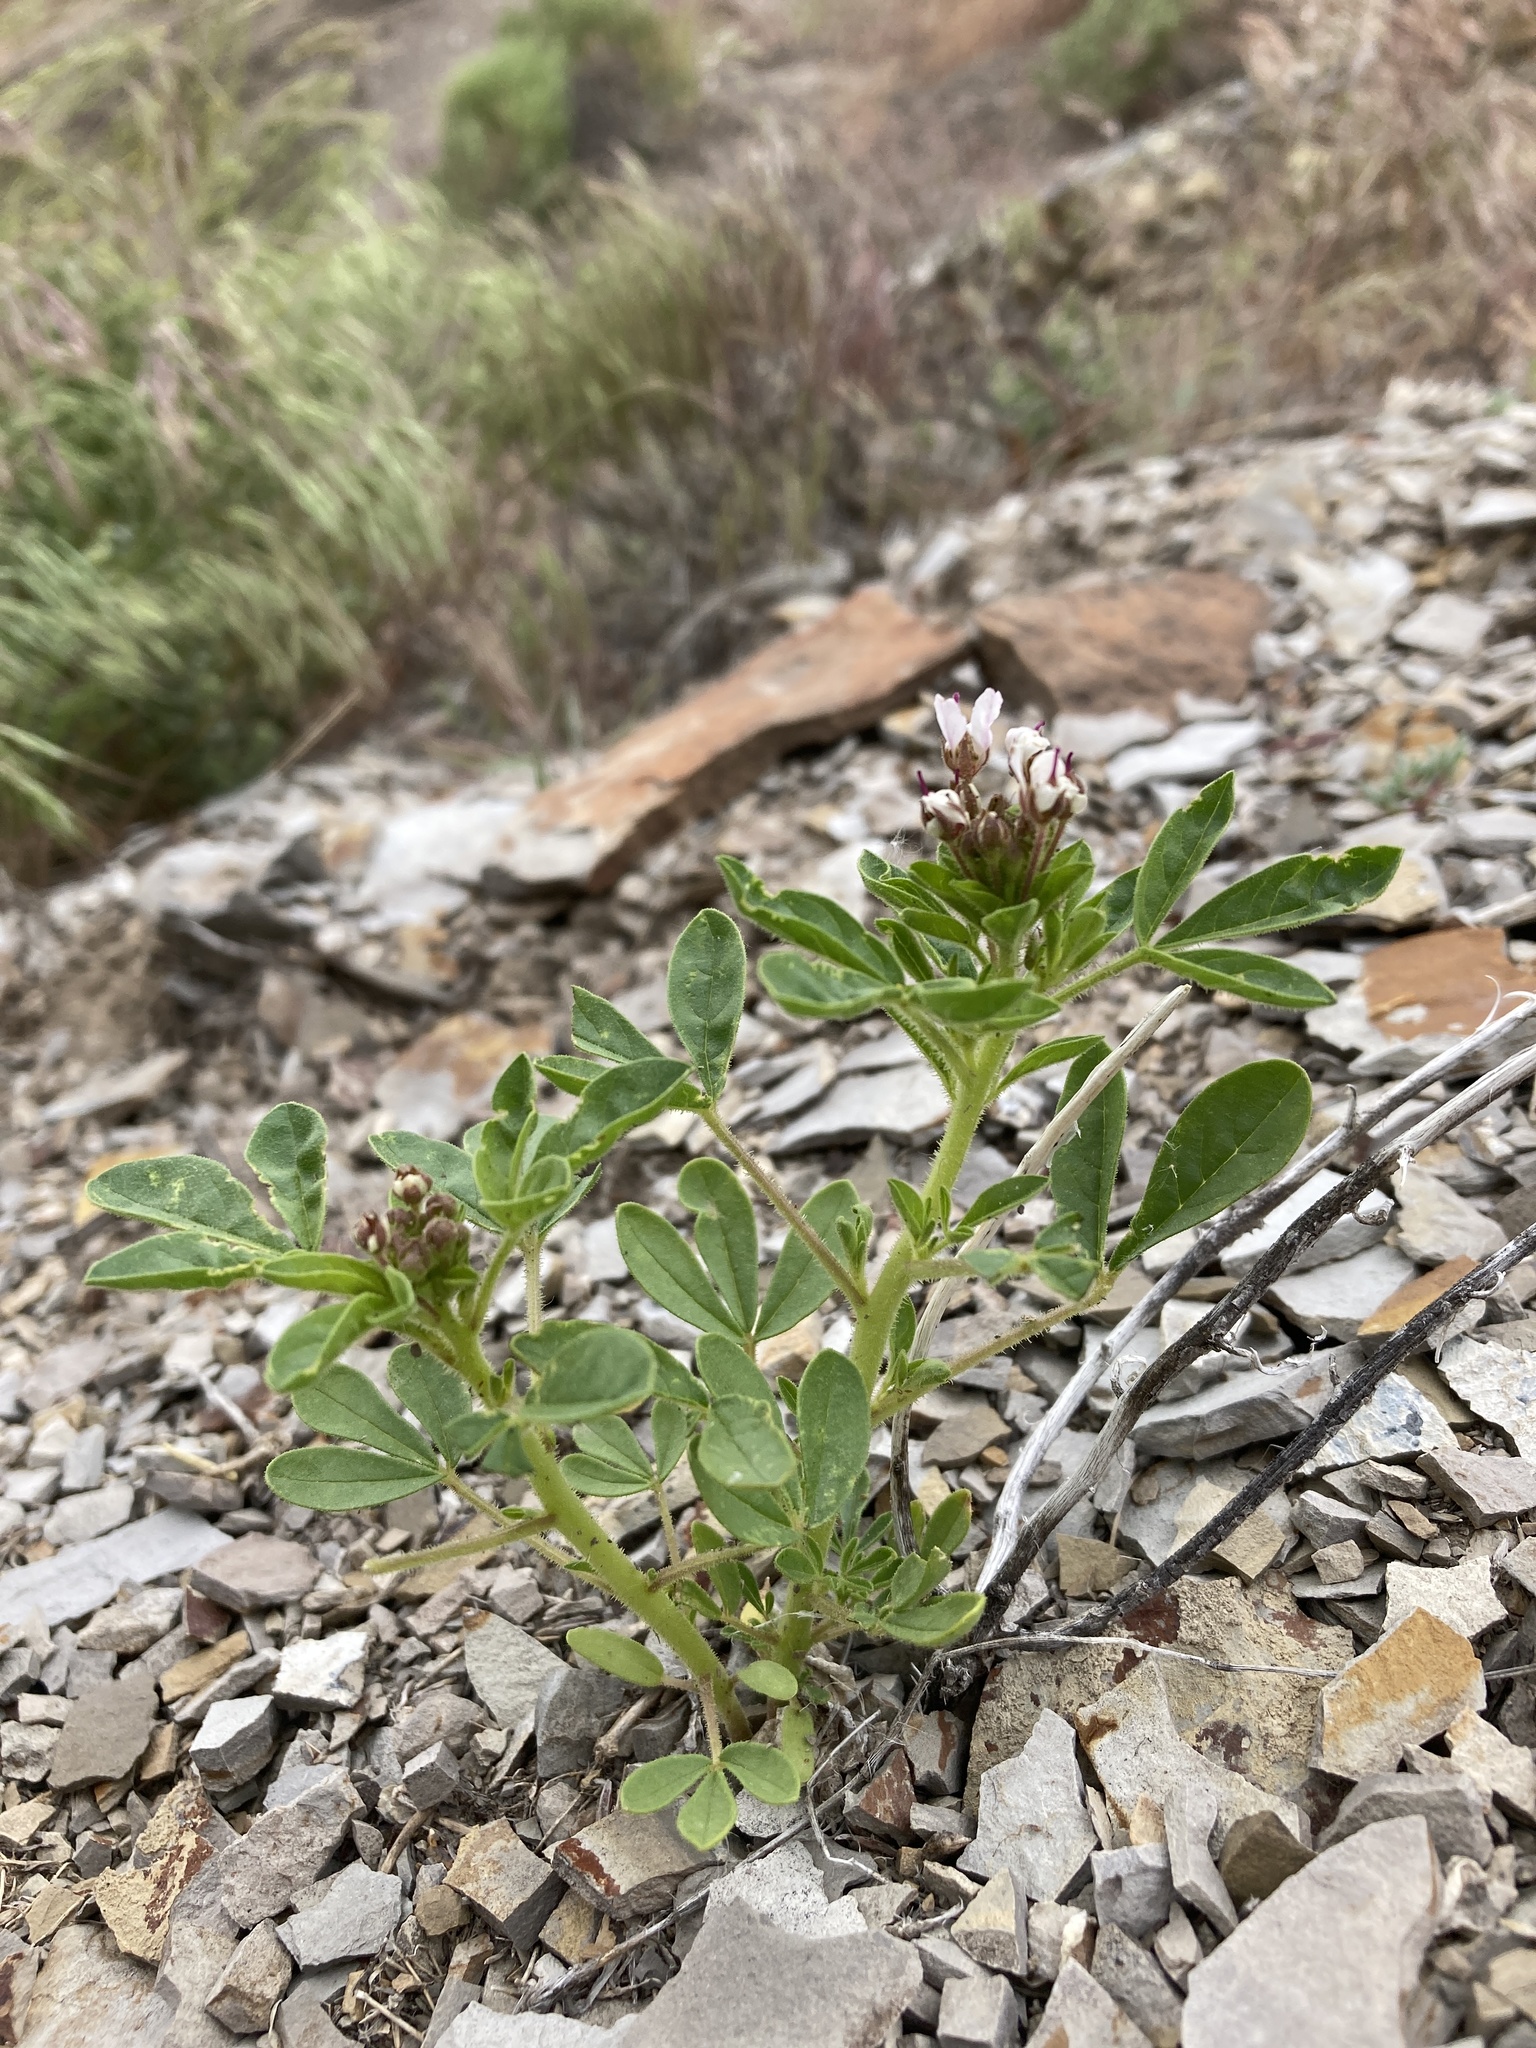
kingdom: Plantae
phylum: Tracheophyta
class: Magnoliopsida
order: Brassicales
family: Cleomaceae
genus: Polanisia
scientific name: Polanisia dodecandra
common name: Clammyweed
